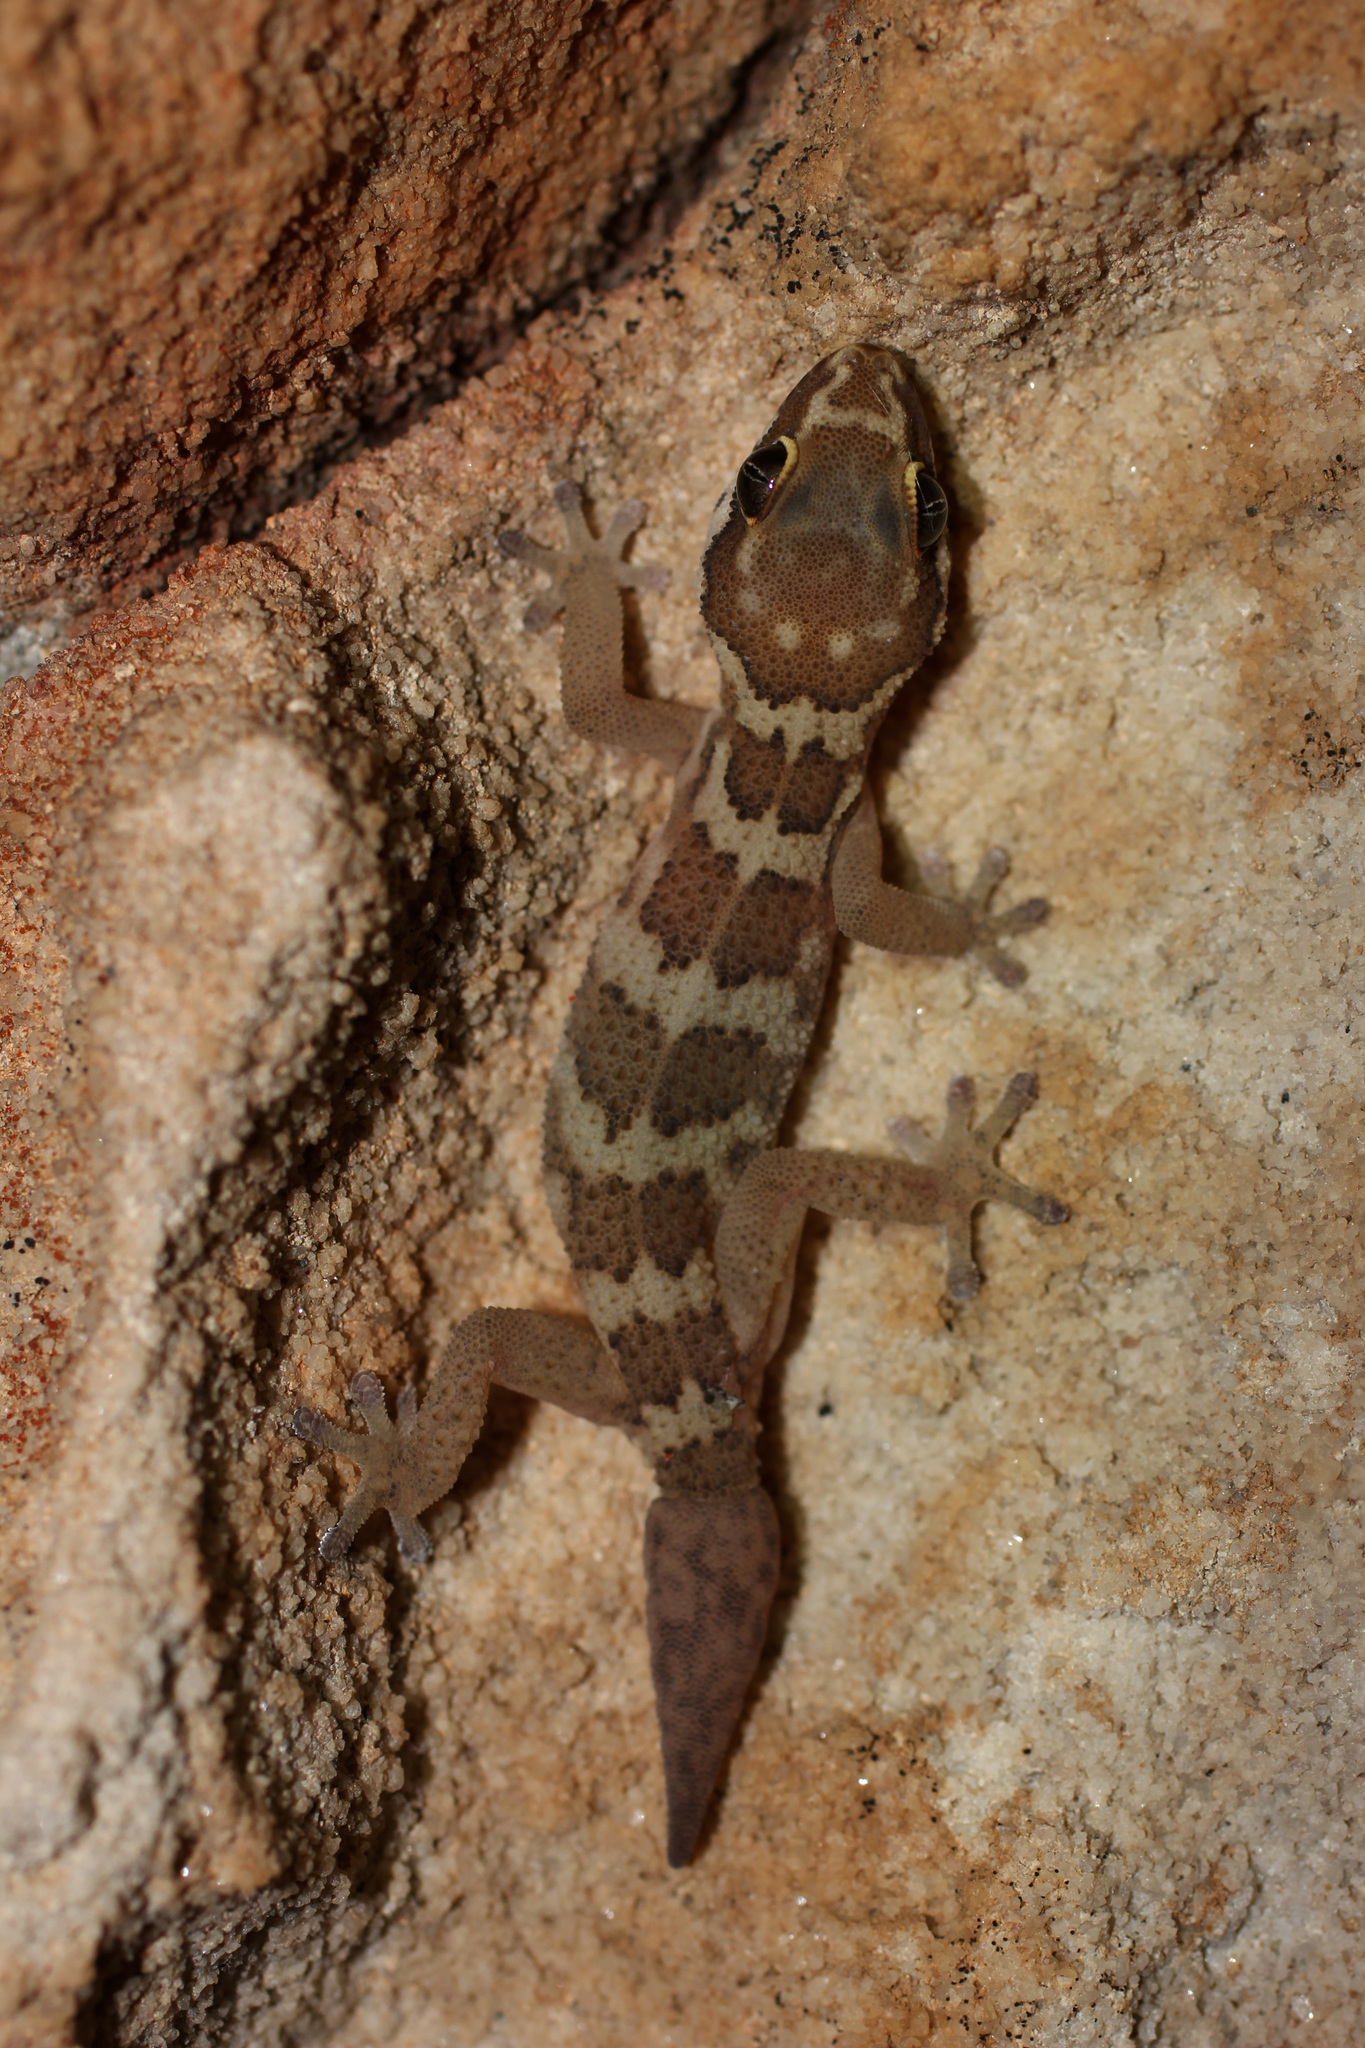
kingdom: Animalia
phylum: Chordata
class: Squamata
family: Gekkonidae
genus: Pachydactylus
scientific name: Pachydactylus formosus
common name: Southern rough gecko
